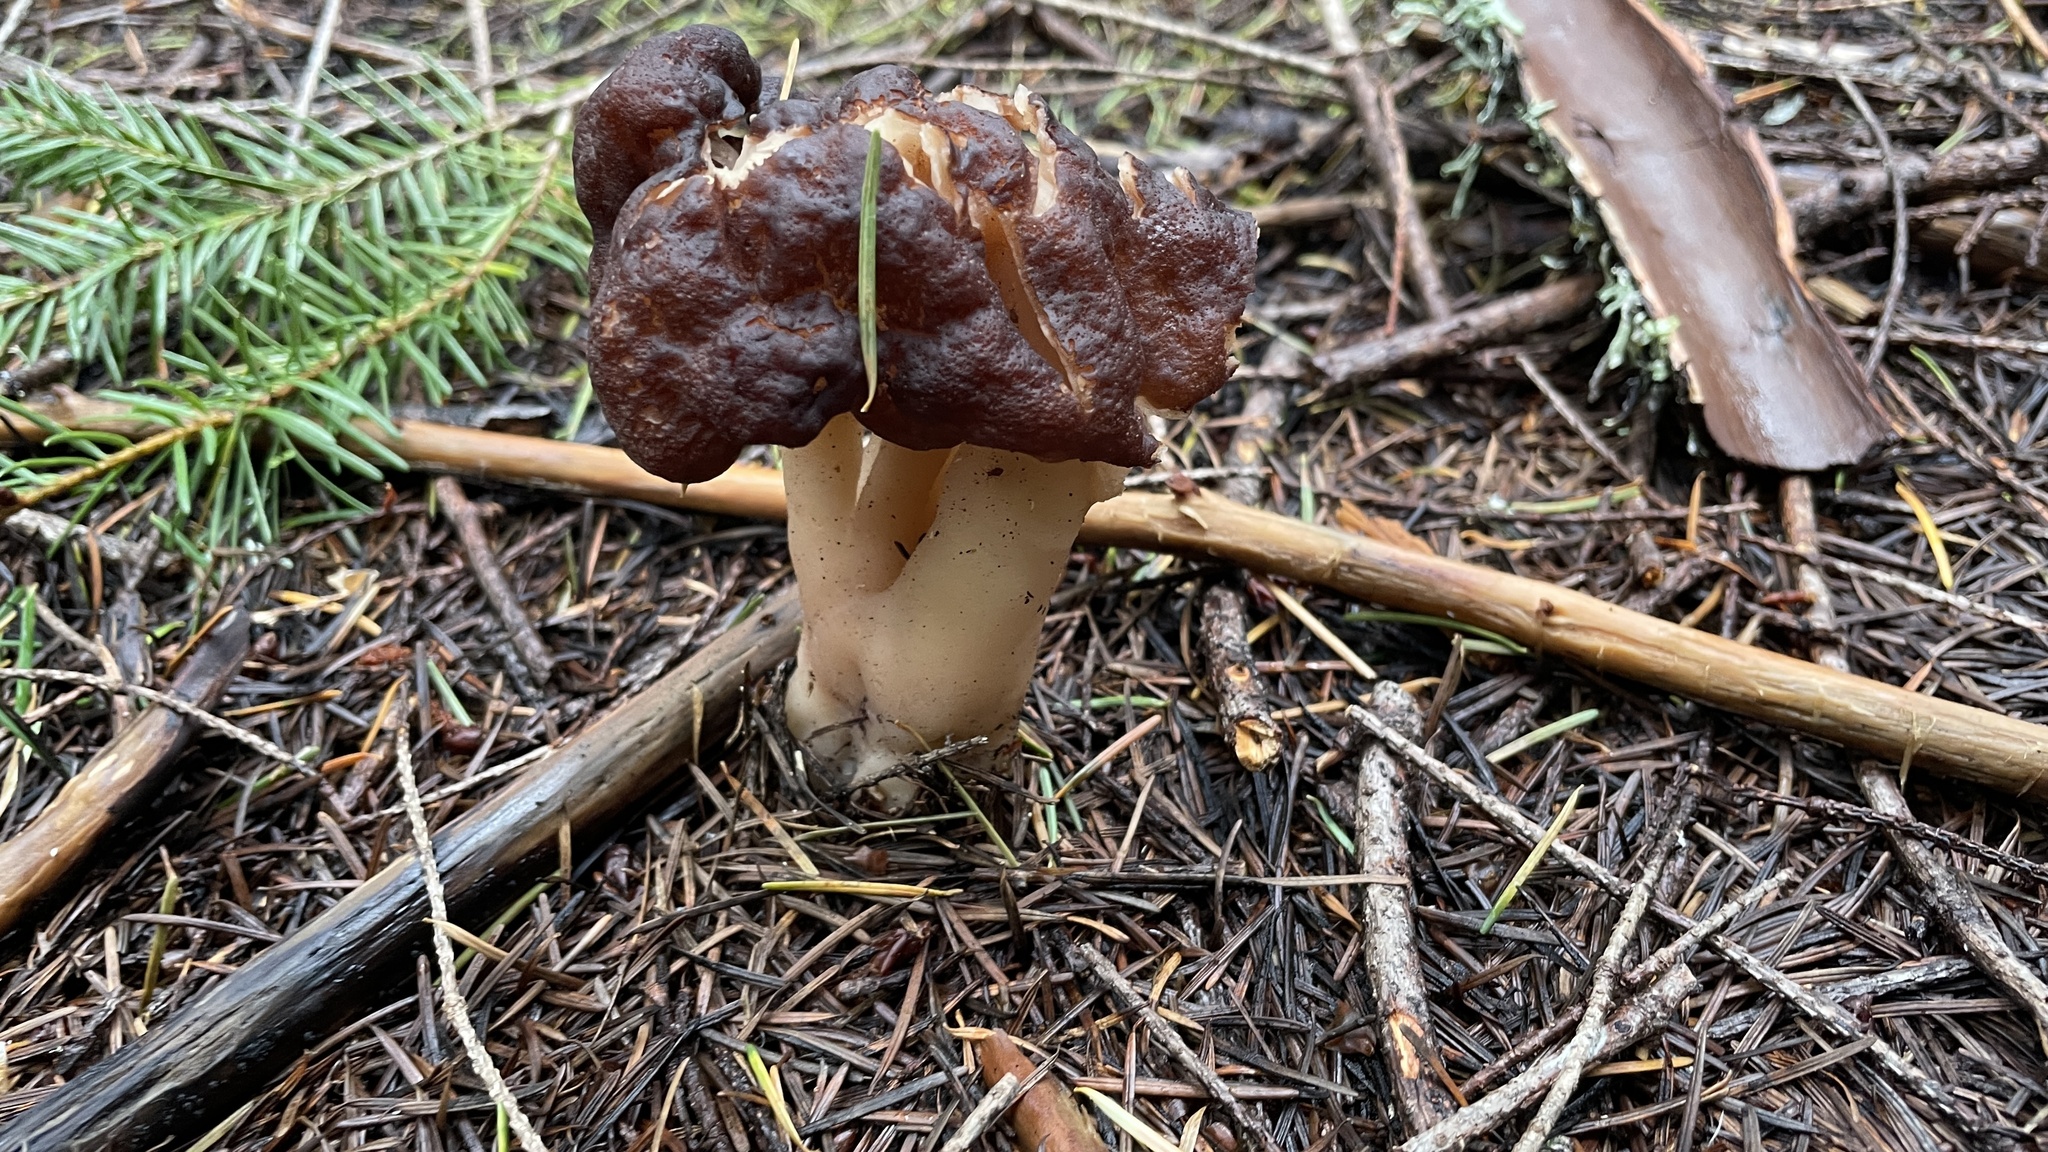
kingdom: Fungi
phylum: Ascomycota
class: Pezizomycetes
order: Pezizales
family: Discinaceae
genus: Gyromitra
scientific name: Gyromitra esculenta
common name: False morel
